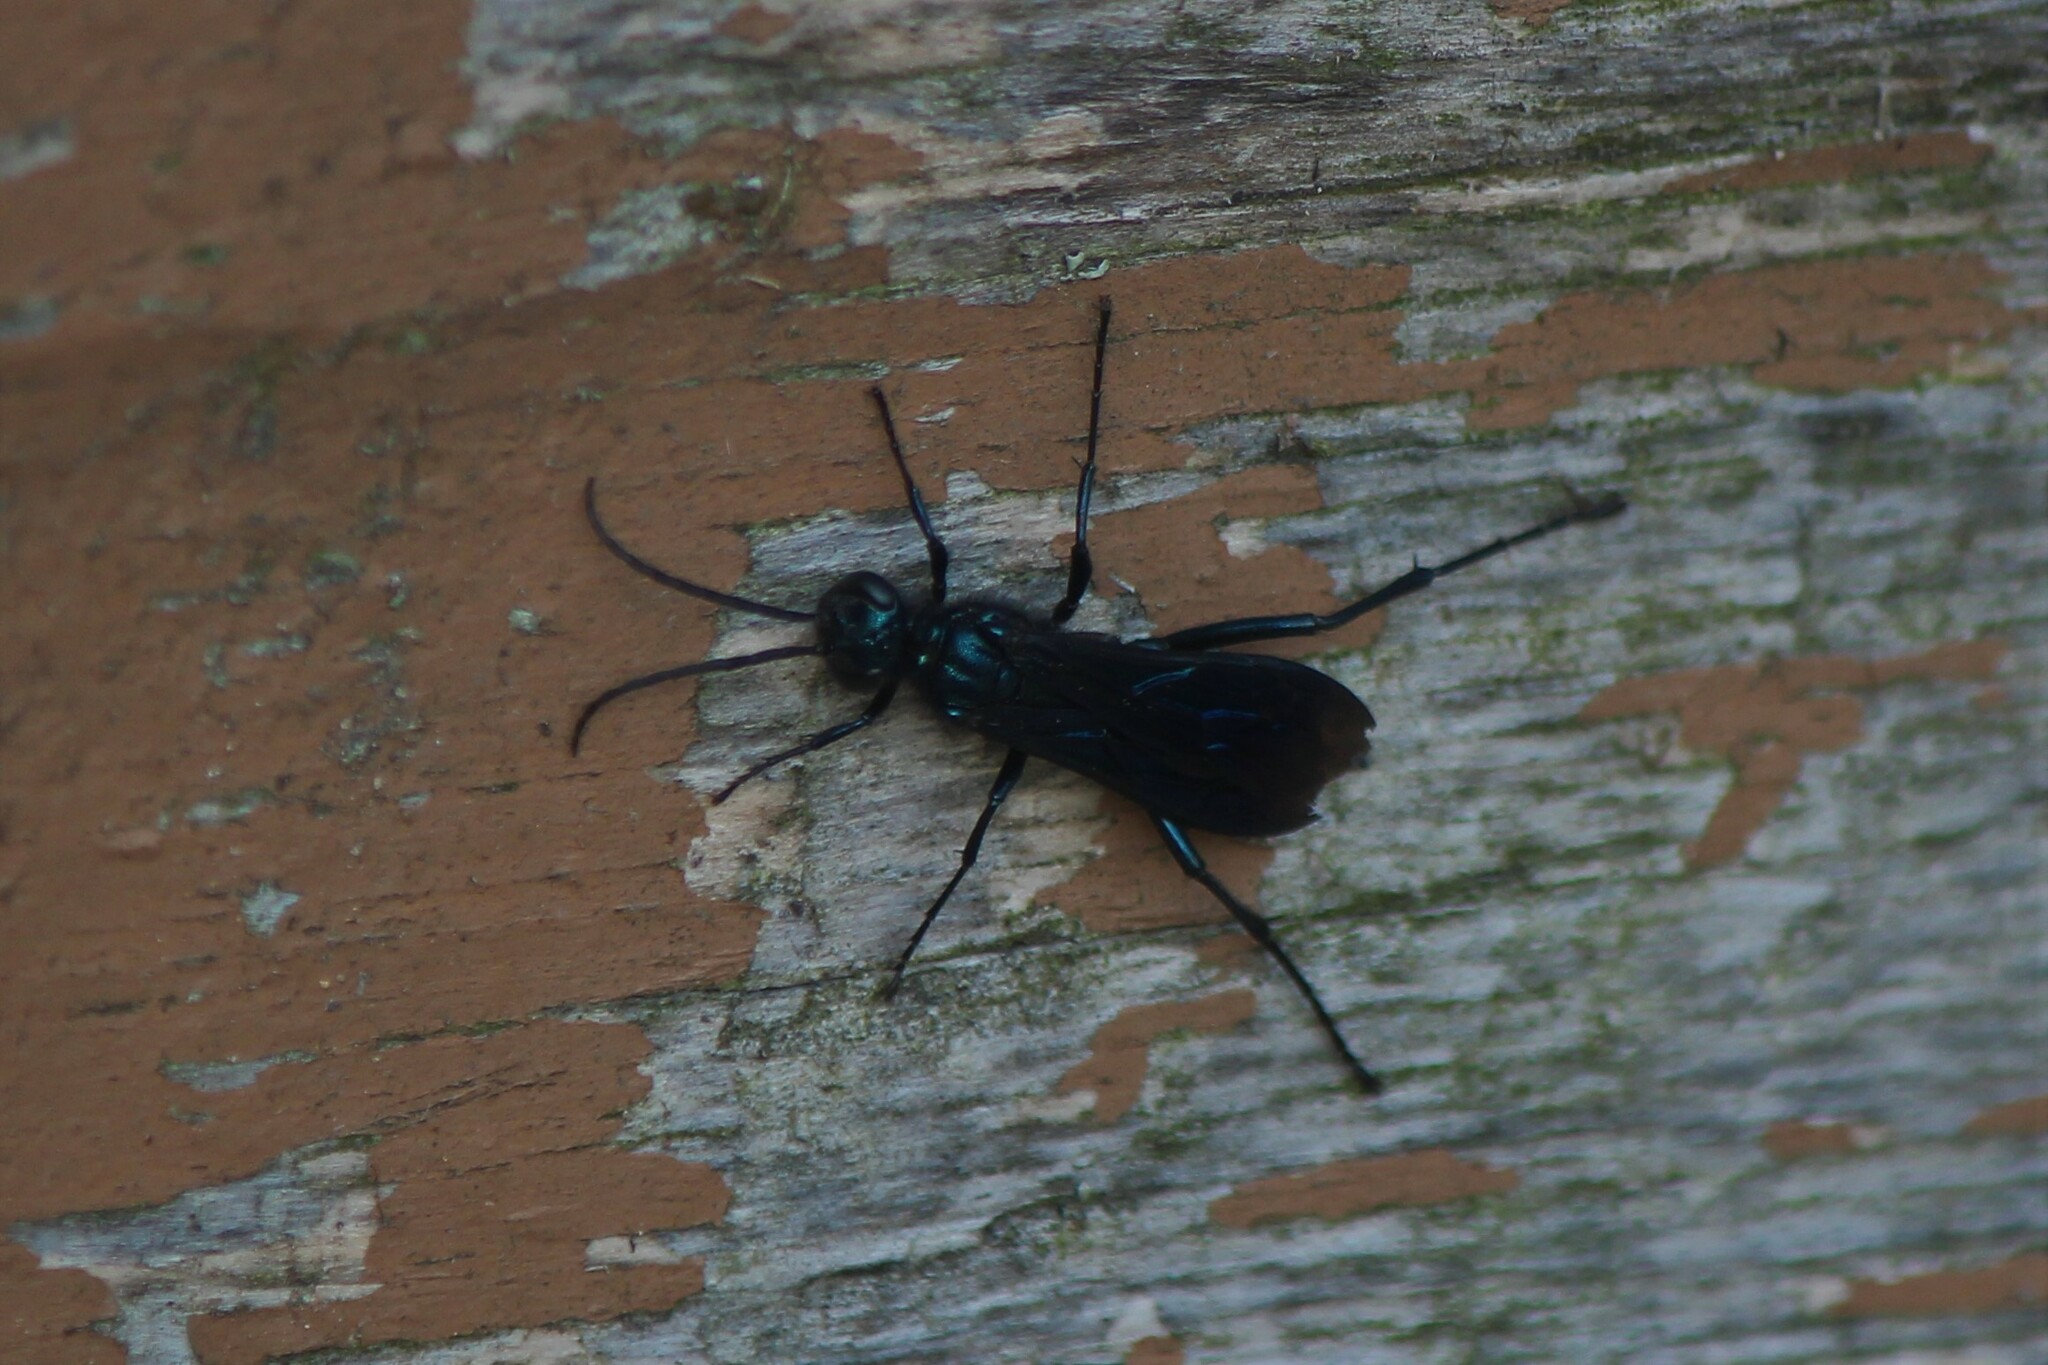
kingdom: Animalia
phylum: Arthropoda
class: Insecta
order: Hymenoptera
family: Sphecidae
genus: Chalybion
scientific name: Chalybion californicum
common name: Mud dauber
